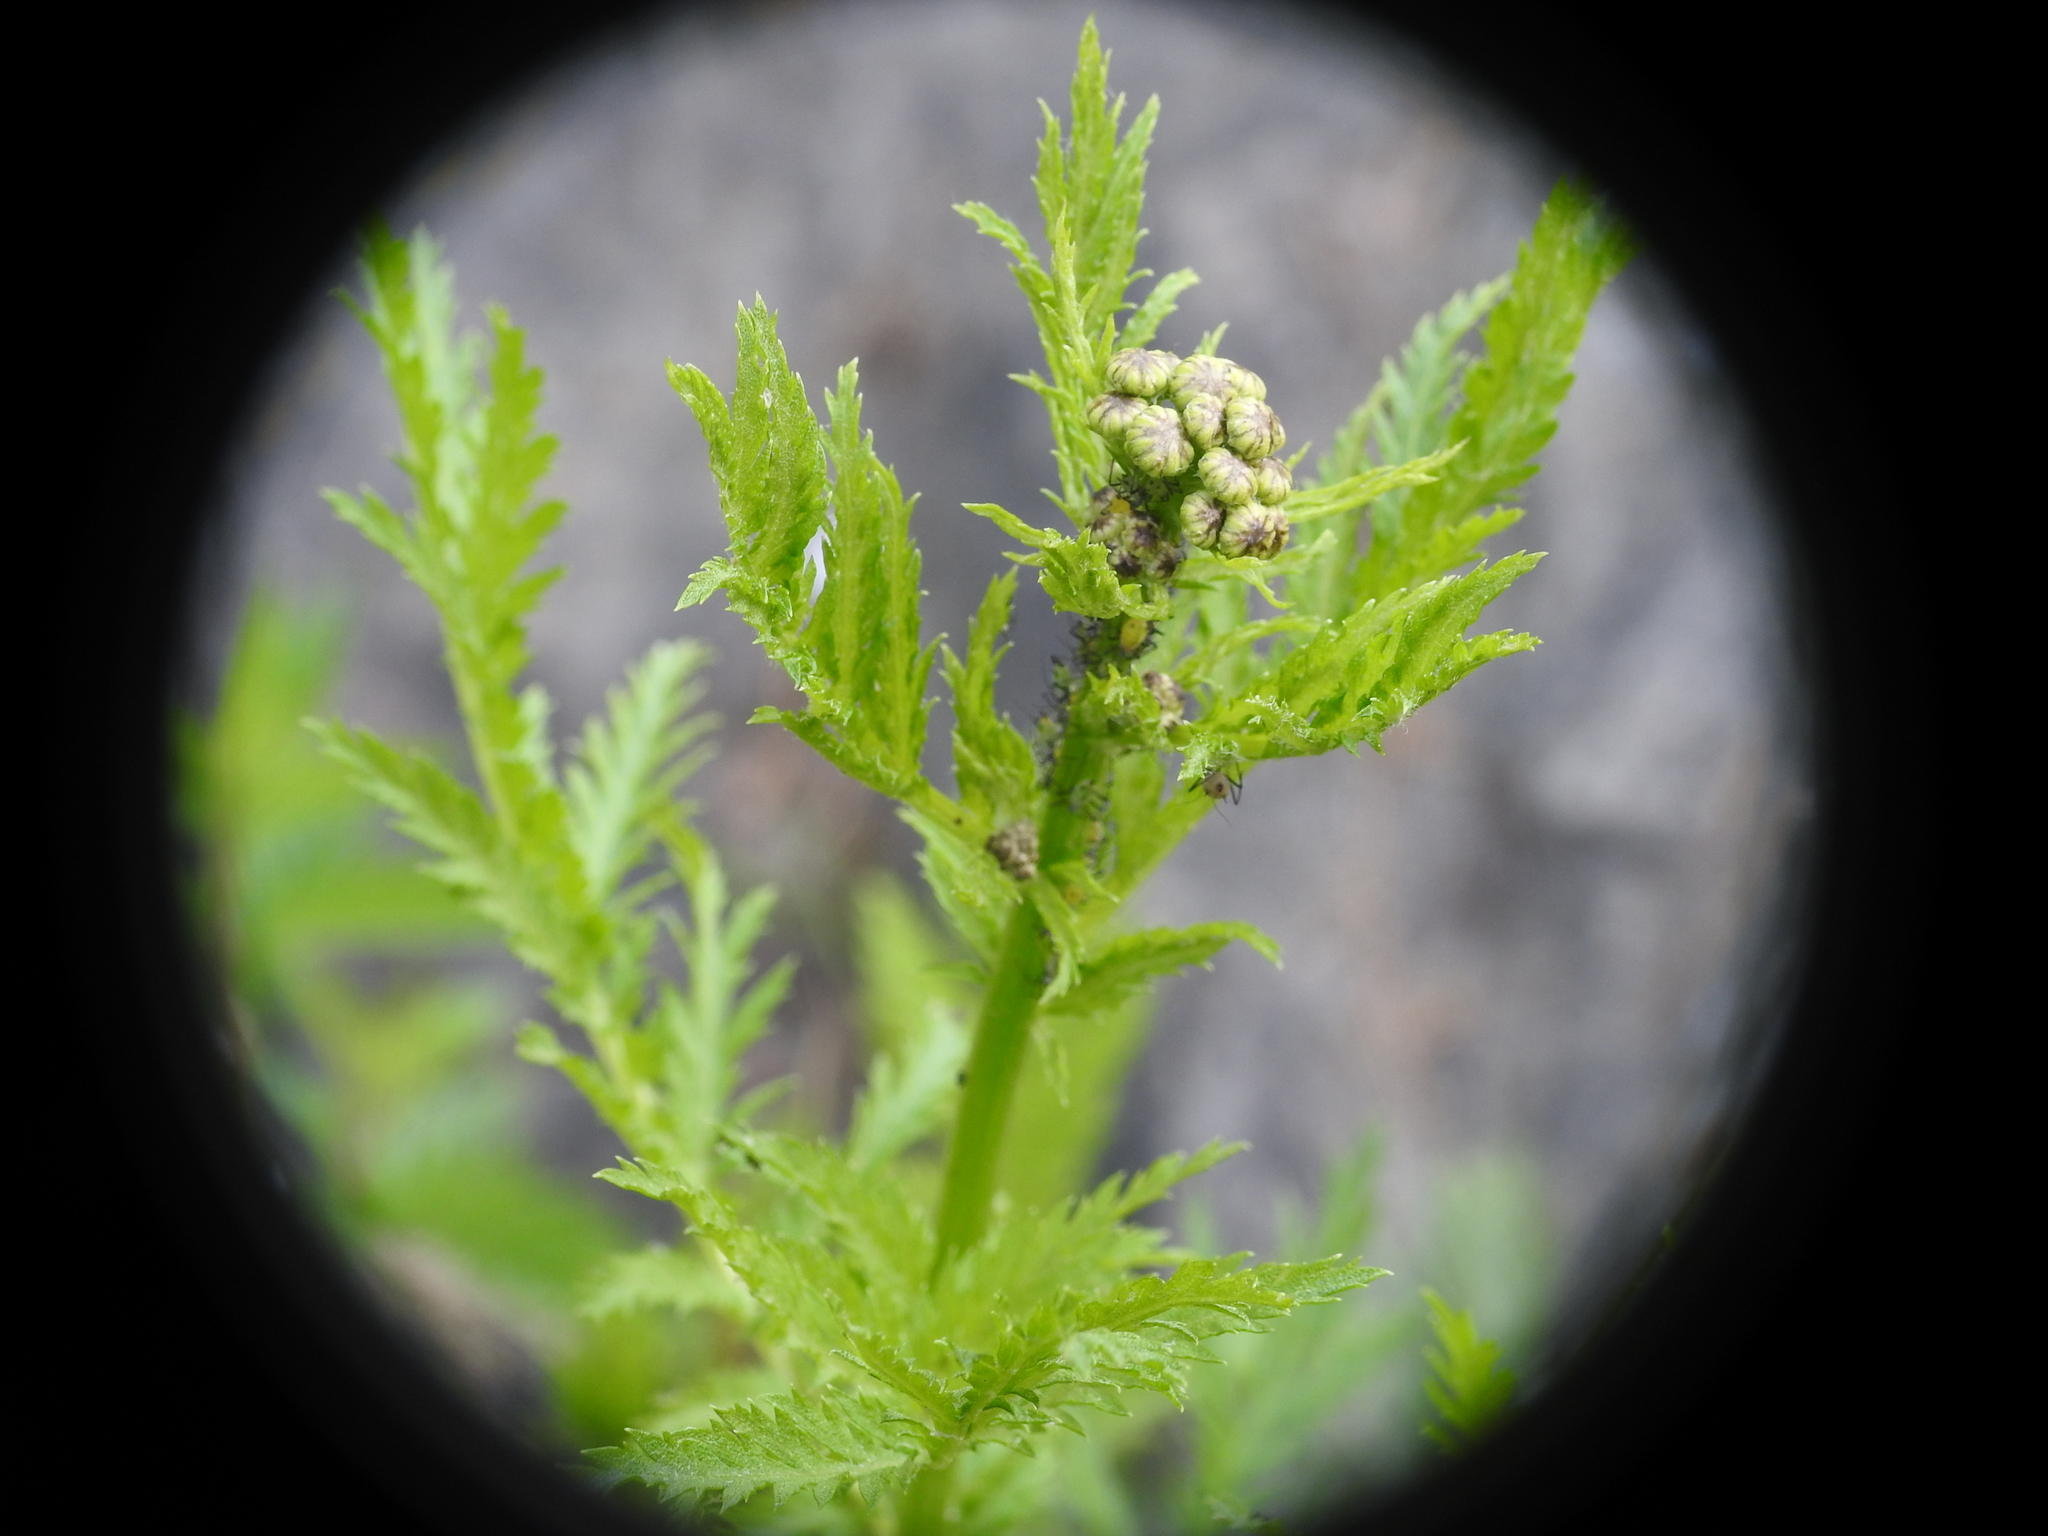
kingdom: Plantae
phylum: Tracheophyta
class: Magnoliopsida
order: Asterales
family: Asteraceae
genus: Tanacetum
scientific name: Tanacetum vulgare
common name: Common tansy
